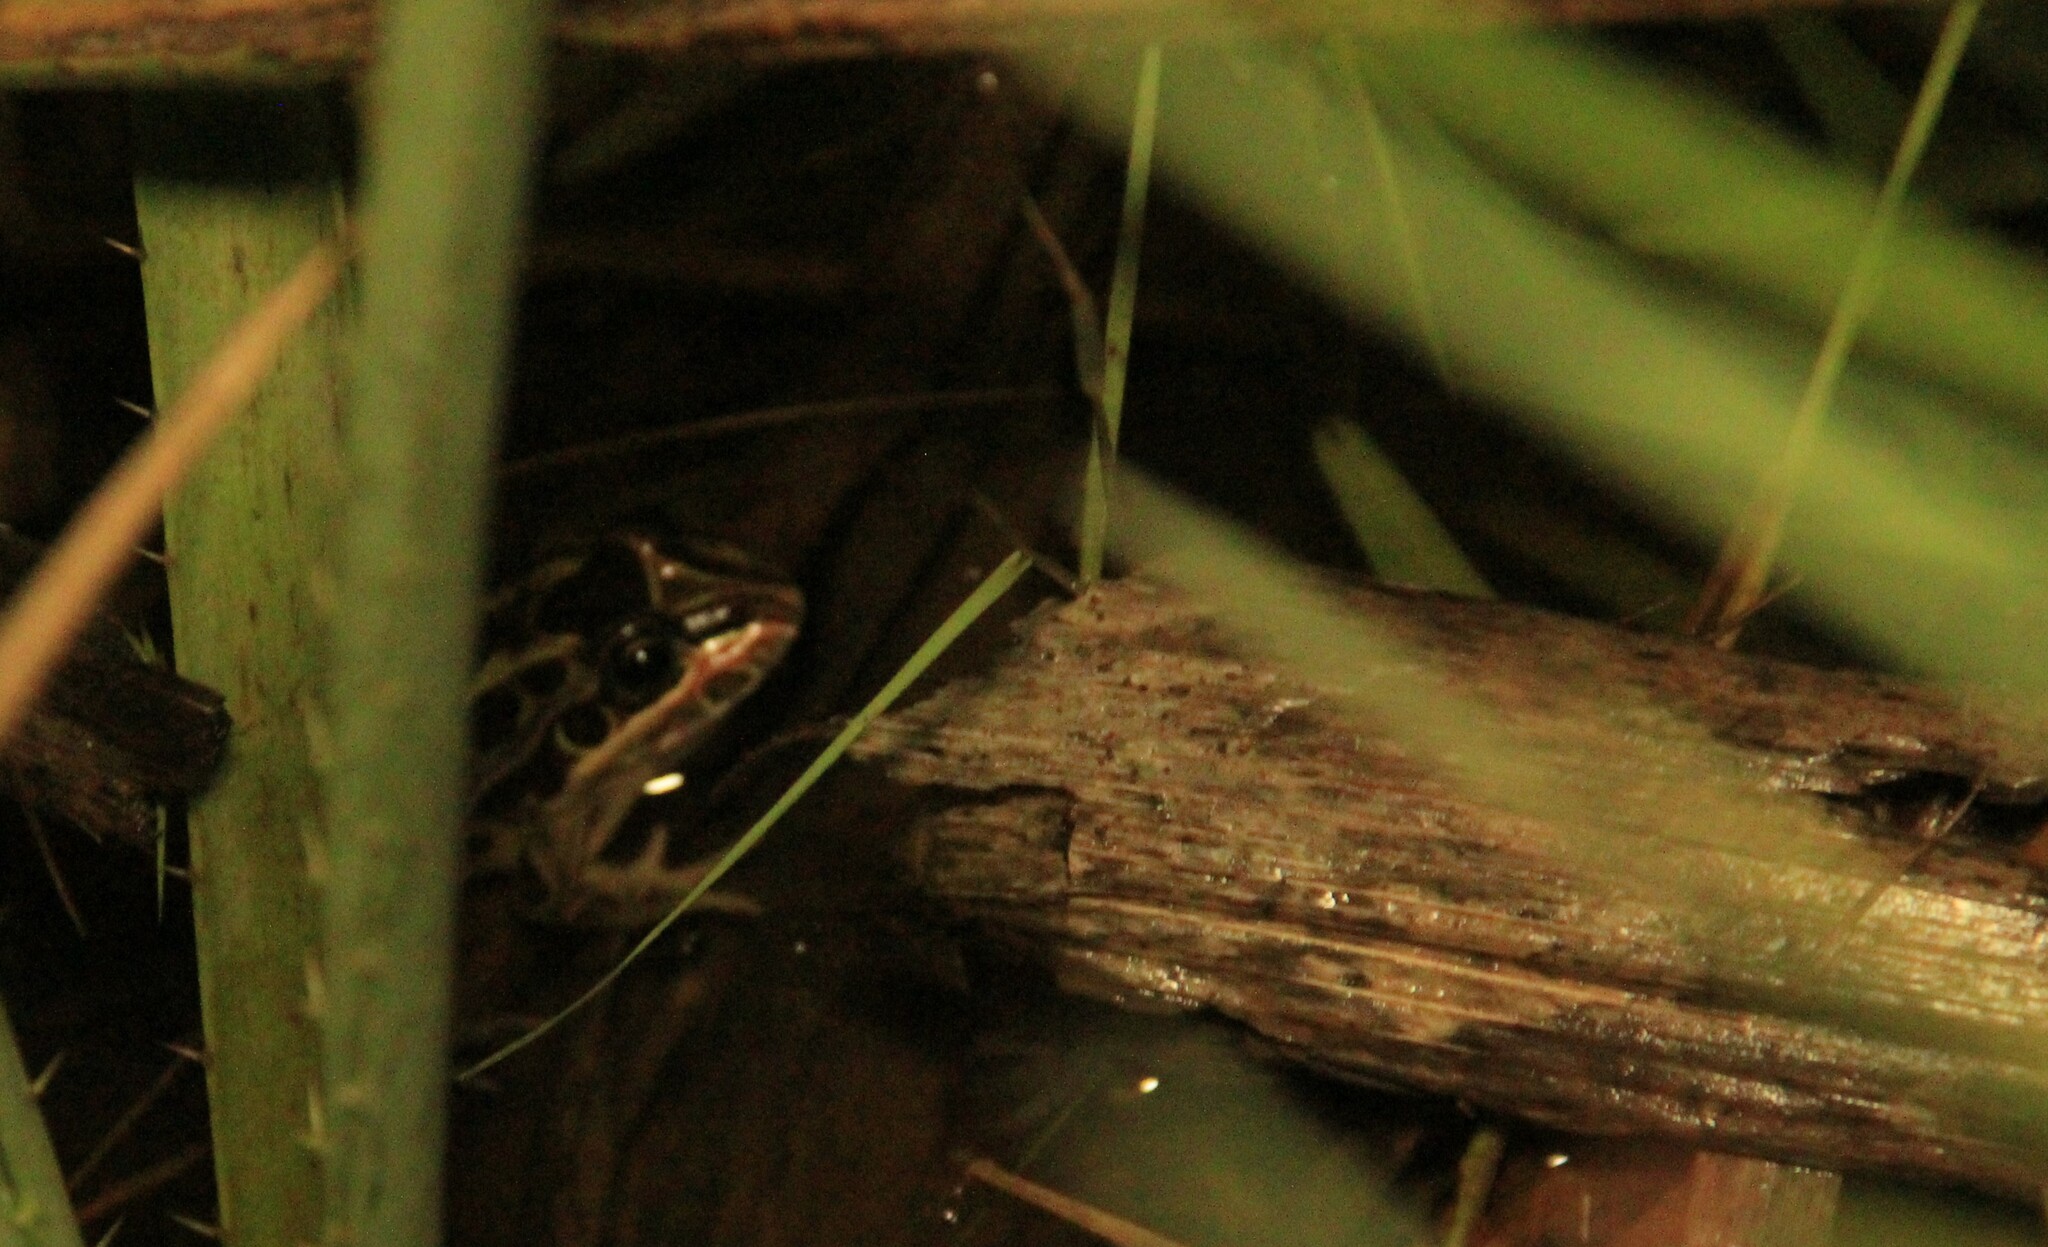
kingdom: Animalia
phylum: Chordata
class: Amphibia
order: Anura
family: Leptodactylidae
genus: Leptodactylus
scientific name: Leptodactylus luctator
